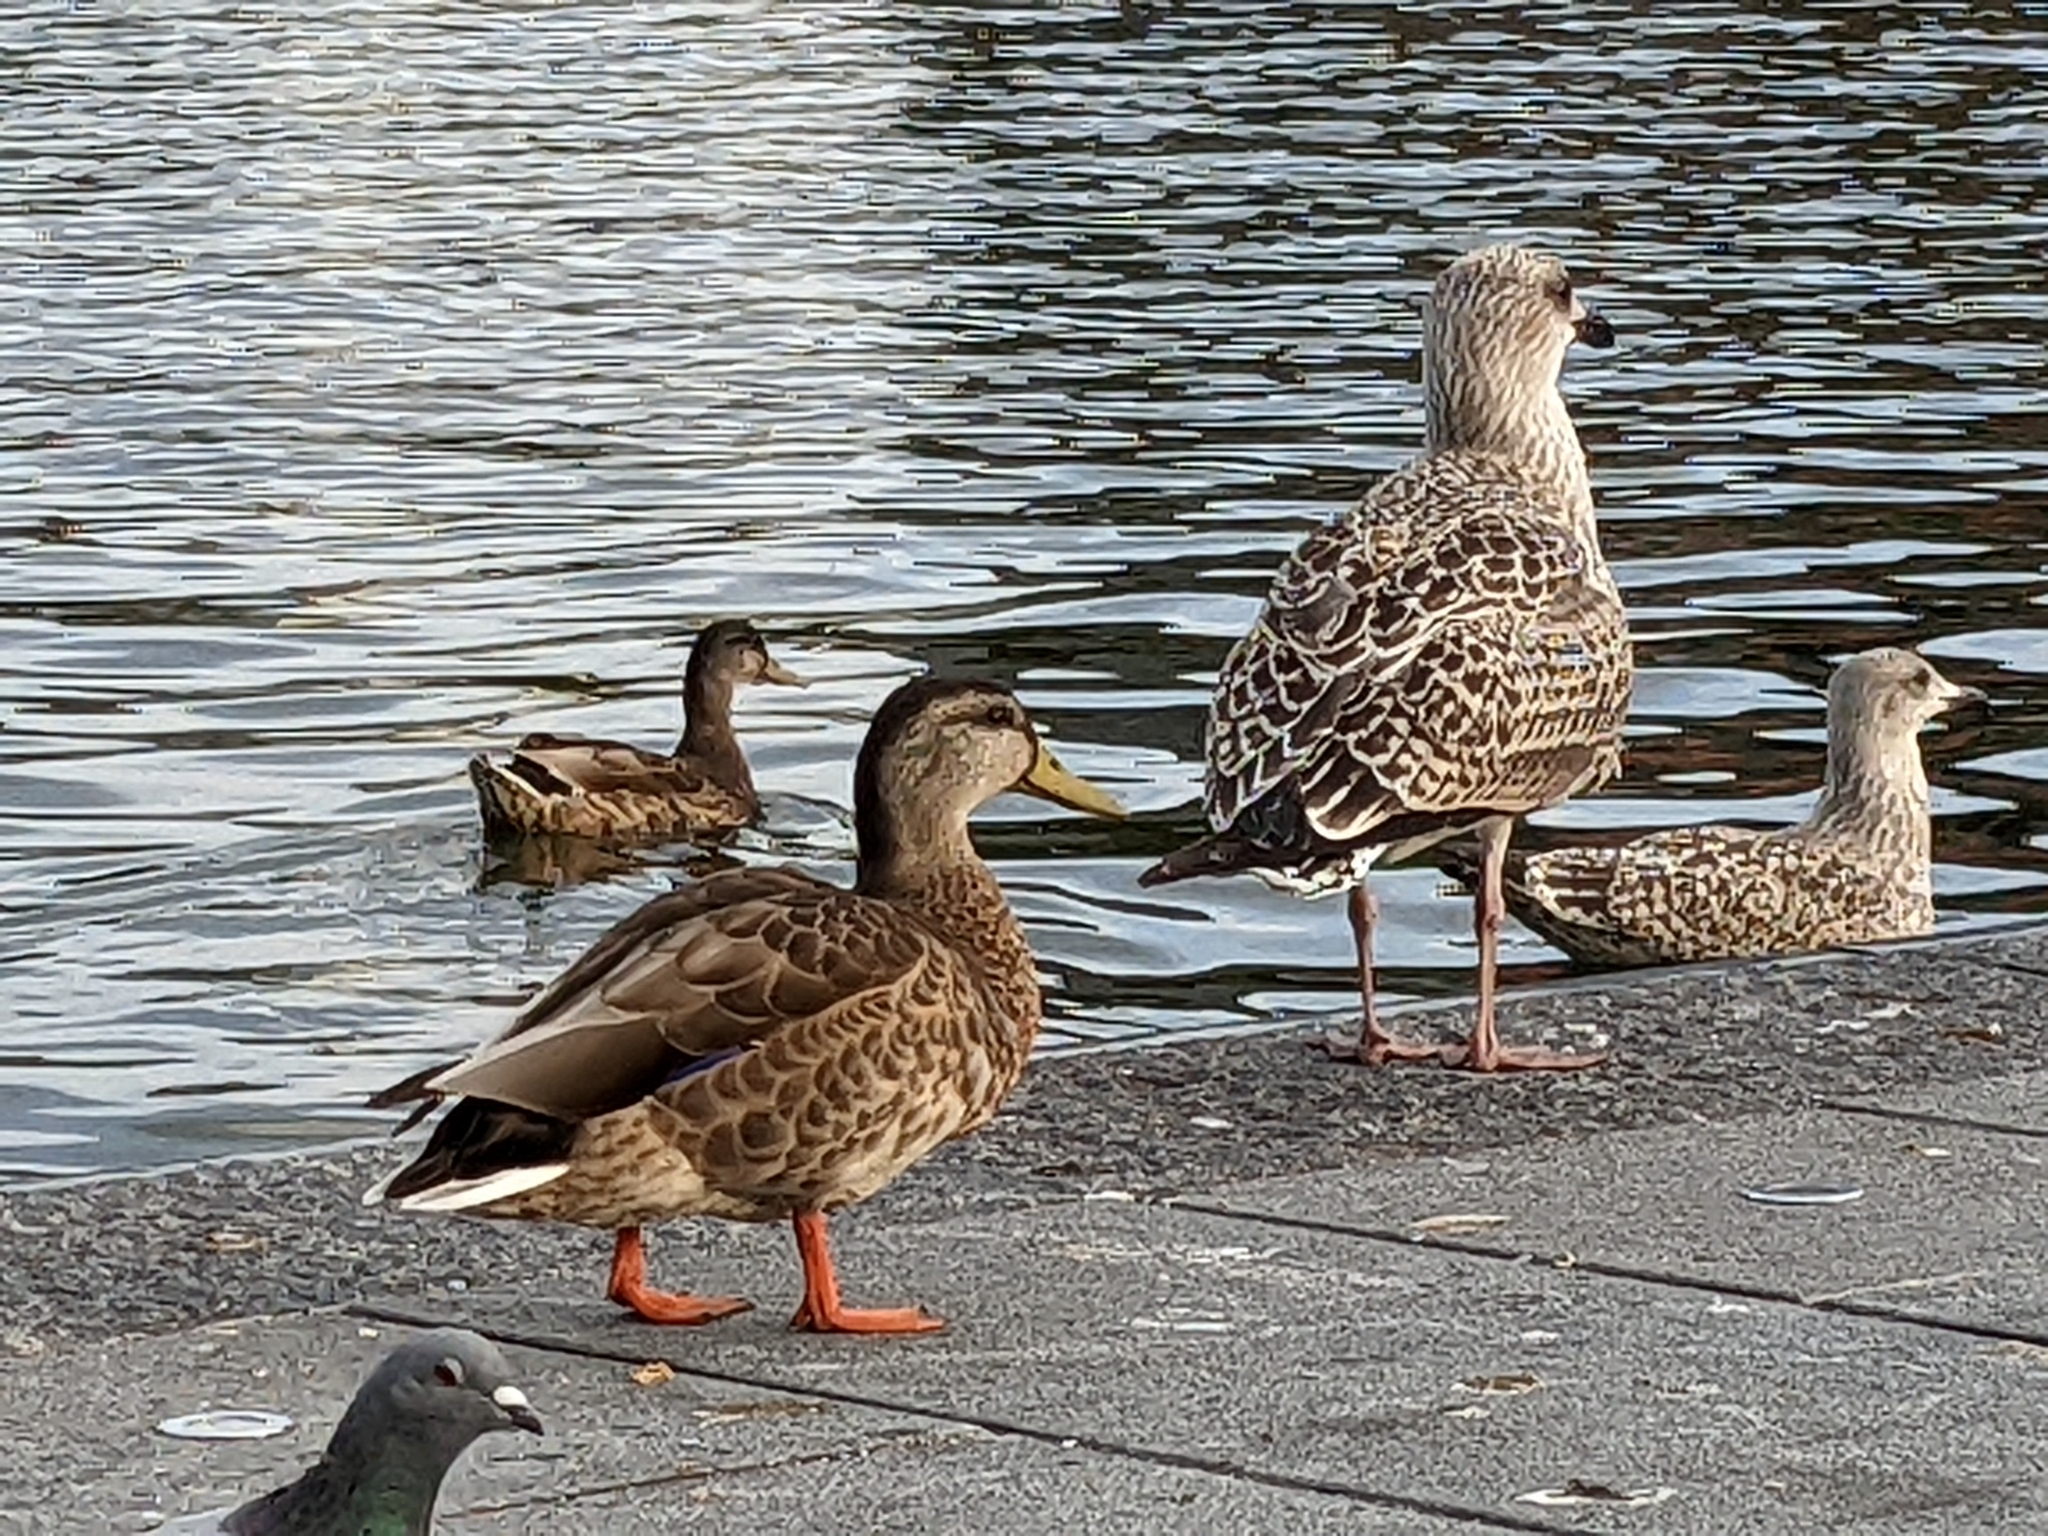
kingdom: Animalia
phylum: Chordata
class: Aves
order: Anseriformes
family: Anatidae
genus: Anas
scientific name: Anas platyrhynchos
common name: Mallard
